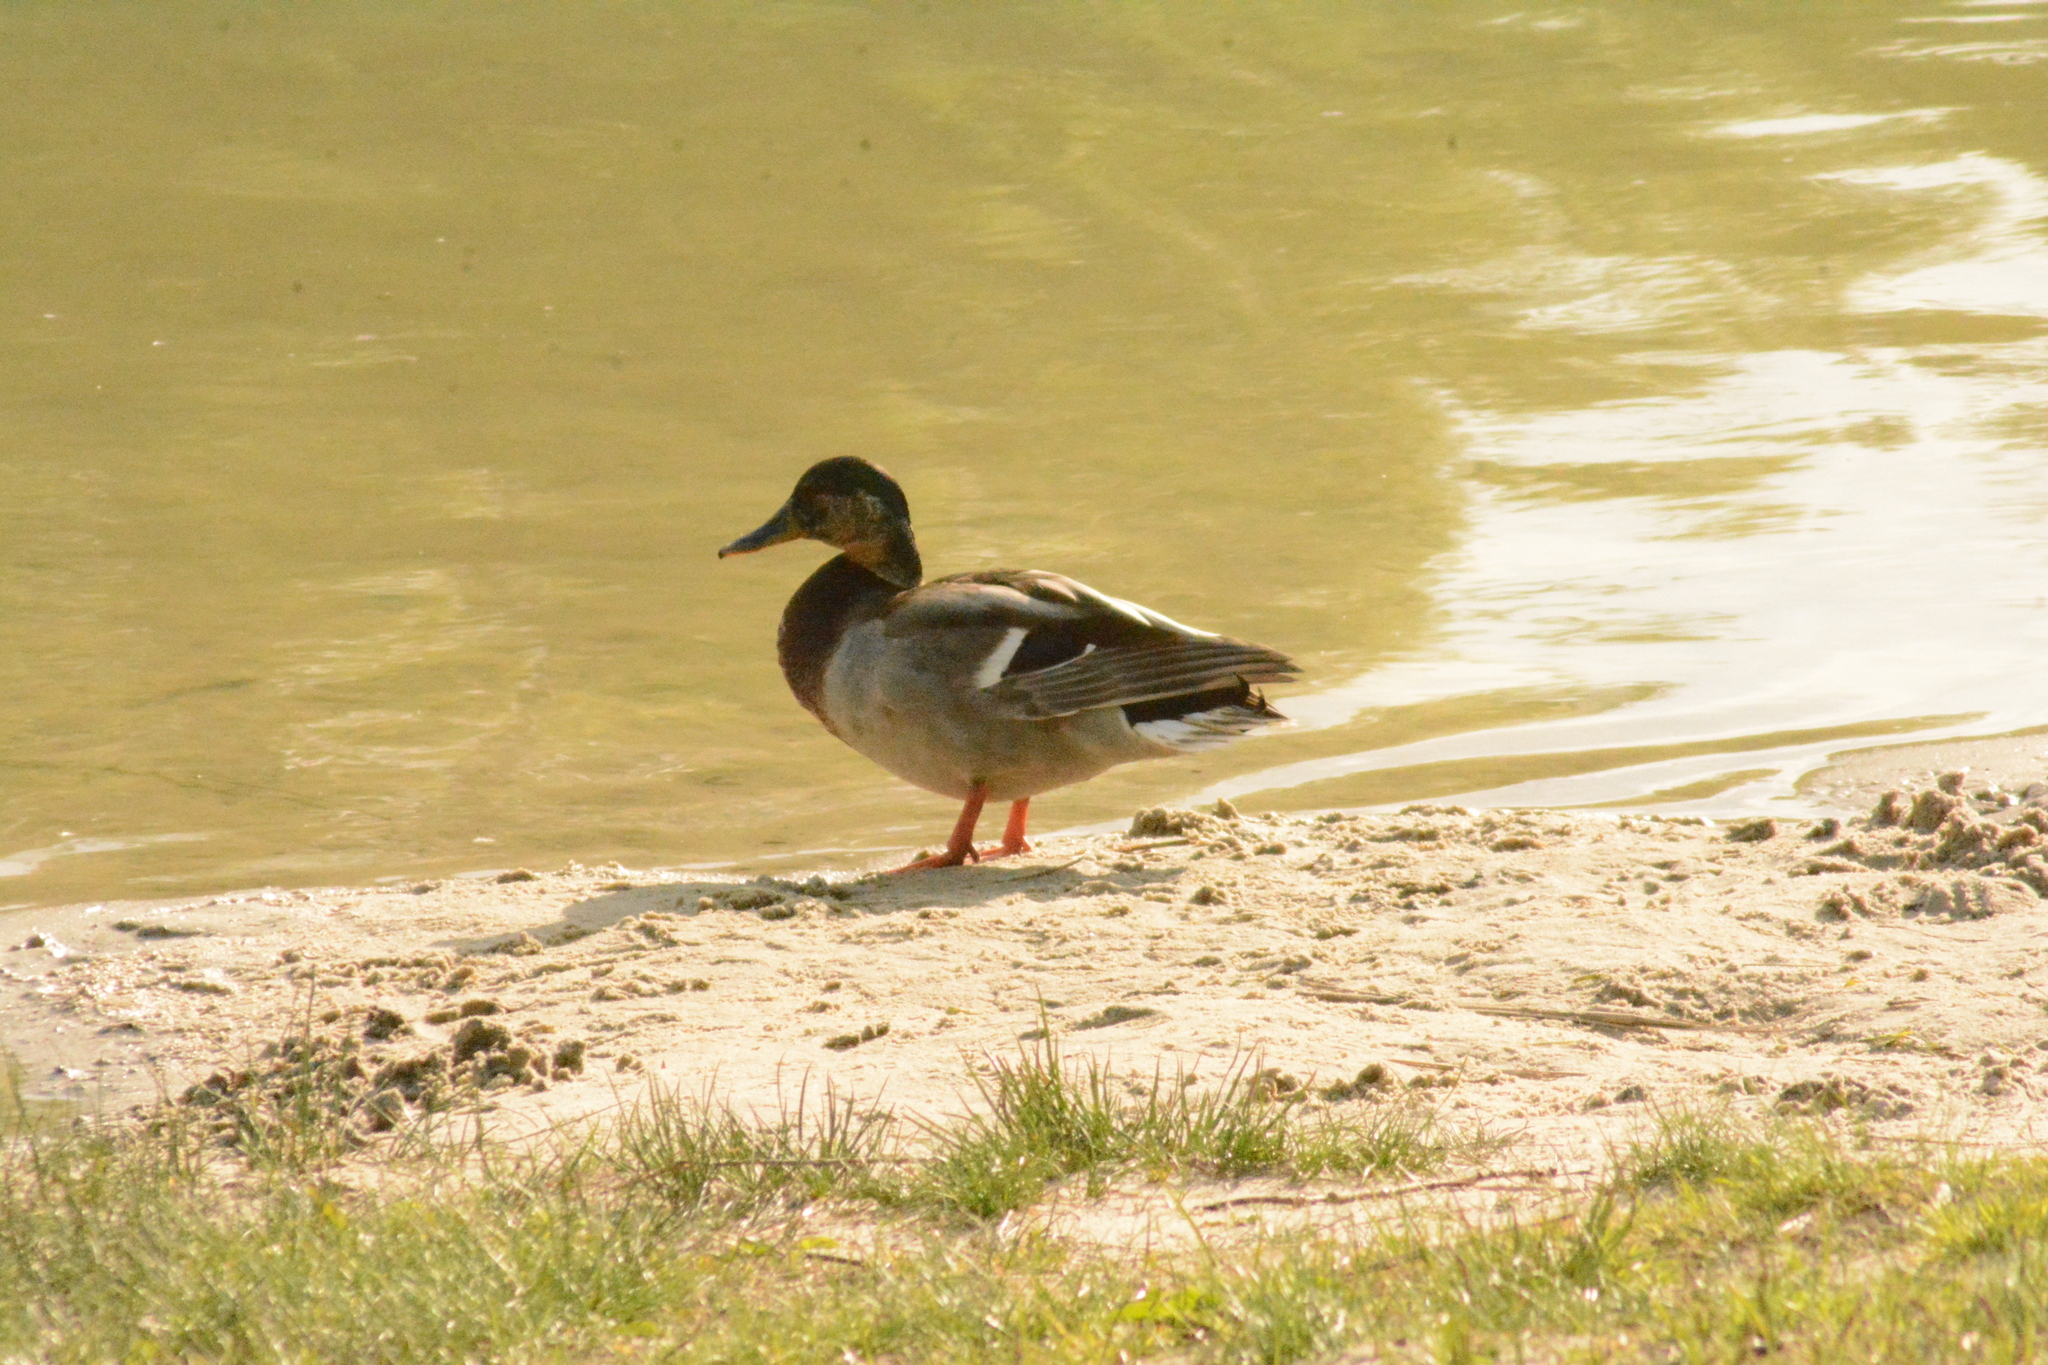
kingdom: Animalia
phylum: Chordata
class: Aves
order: Anseriformes
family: Anatidae
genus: Anas
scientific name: Anas platyrhynchos
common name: Mallard
